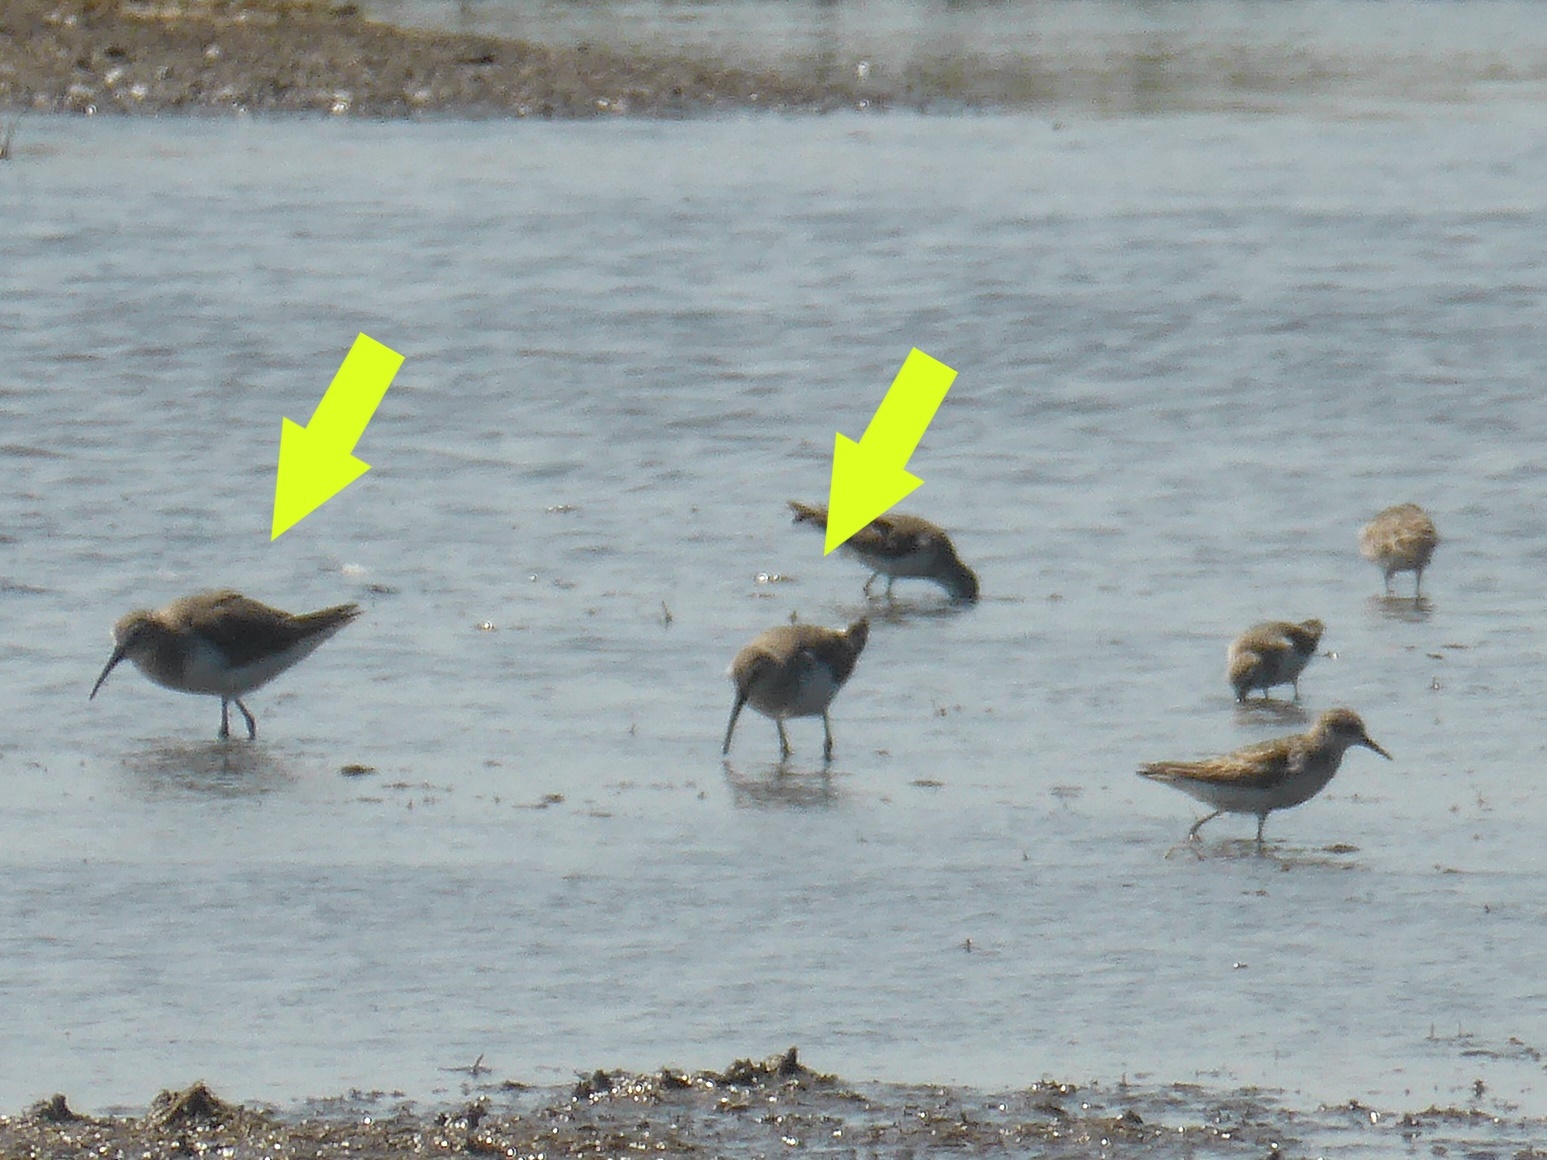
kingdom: Animalia
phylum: Chordata
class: Aves
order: Charadriiformes
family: Scolopacidae
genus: Calidris
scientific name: Calidris ferruginea
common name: Curlew sandpiper
